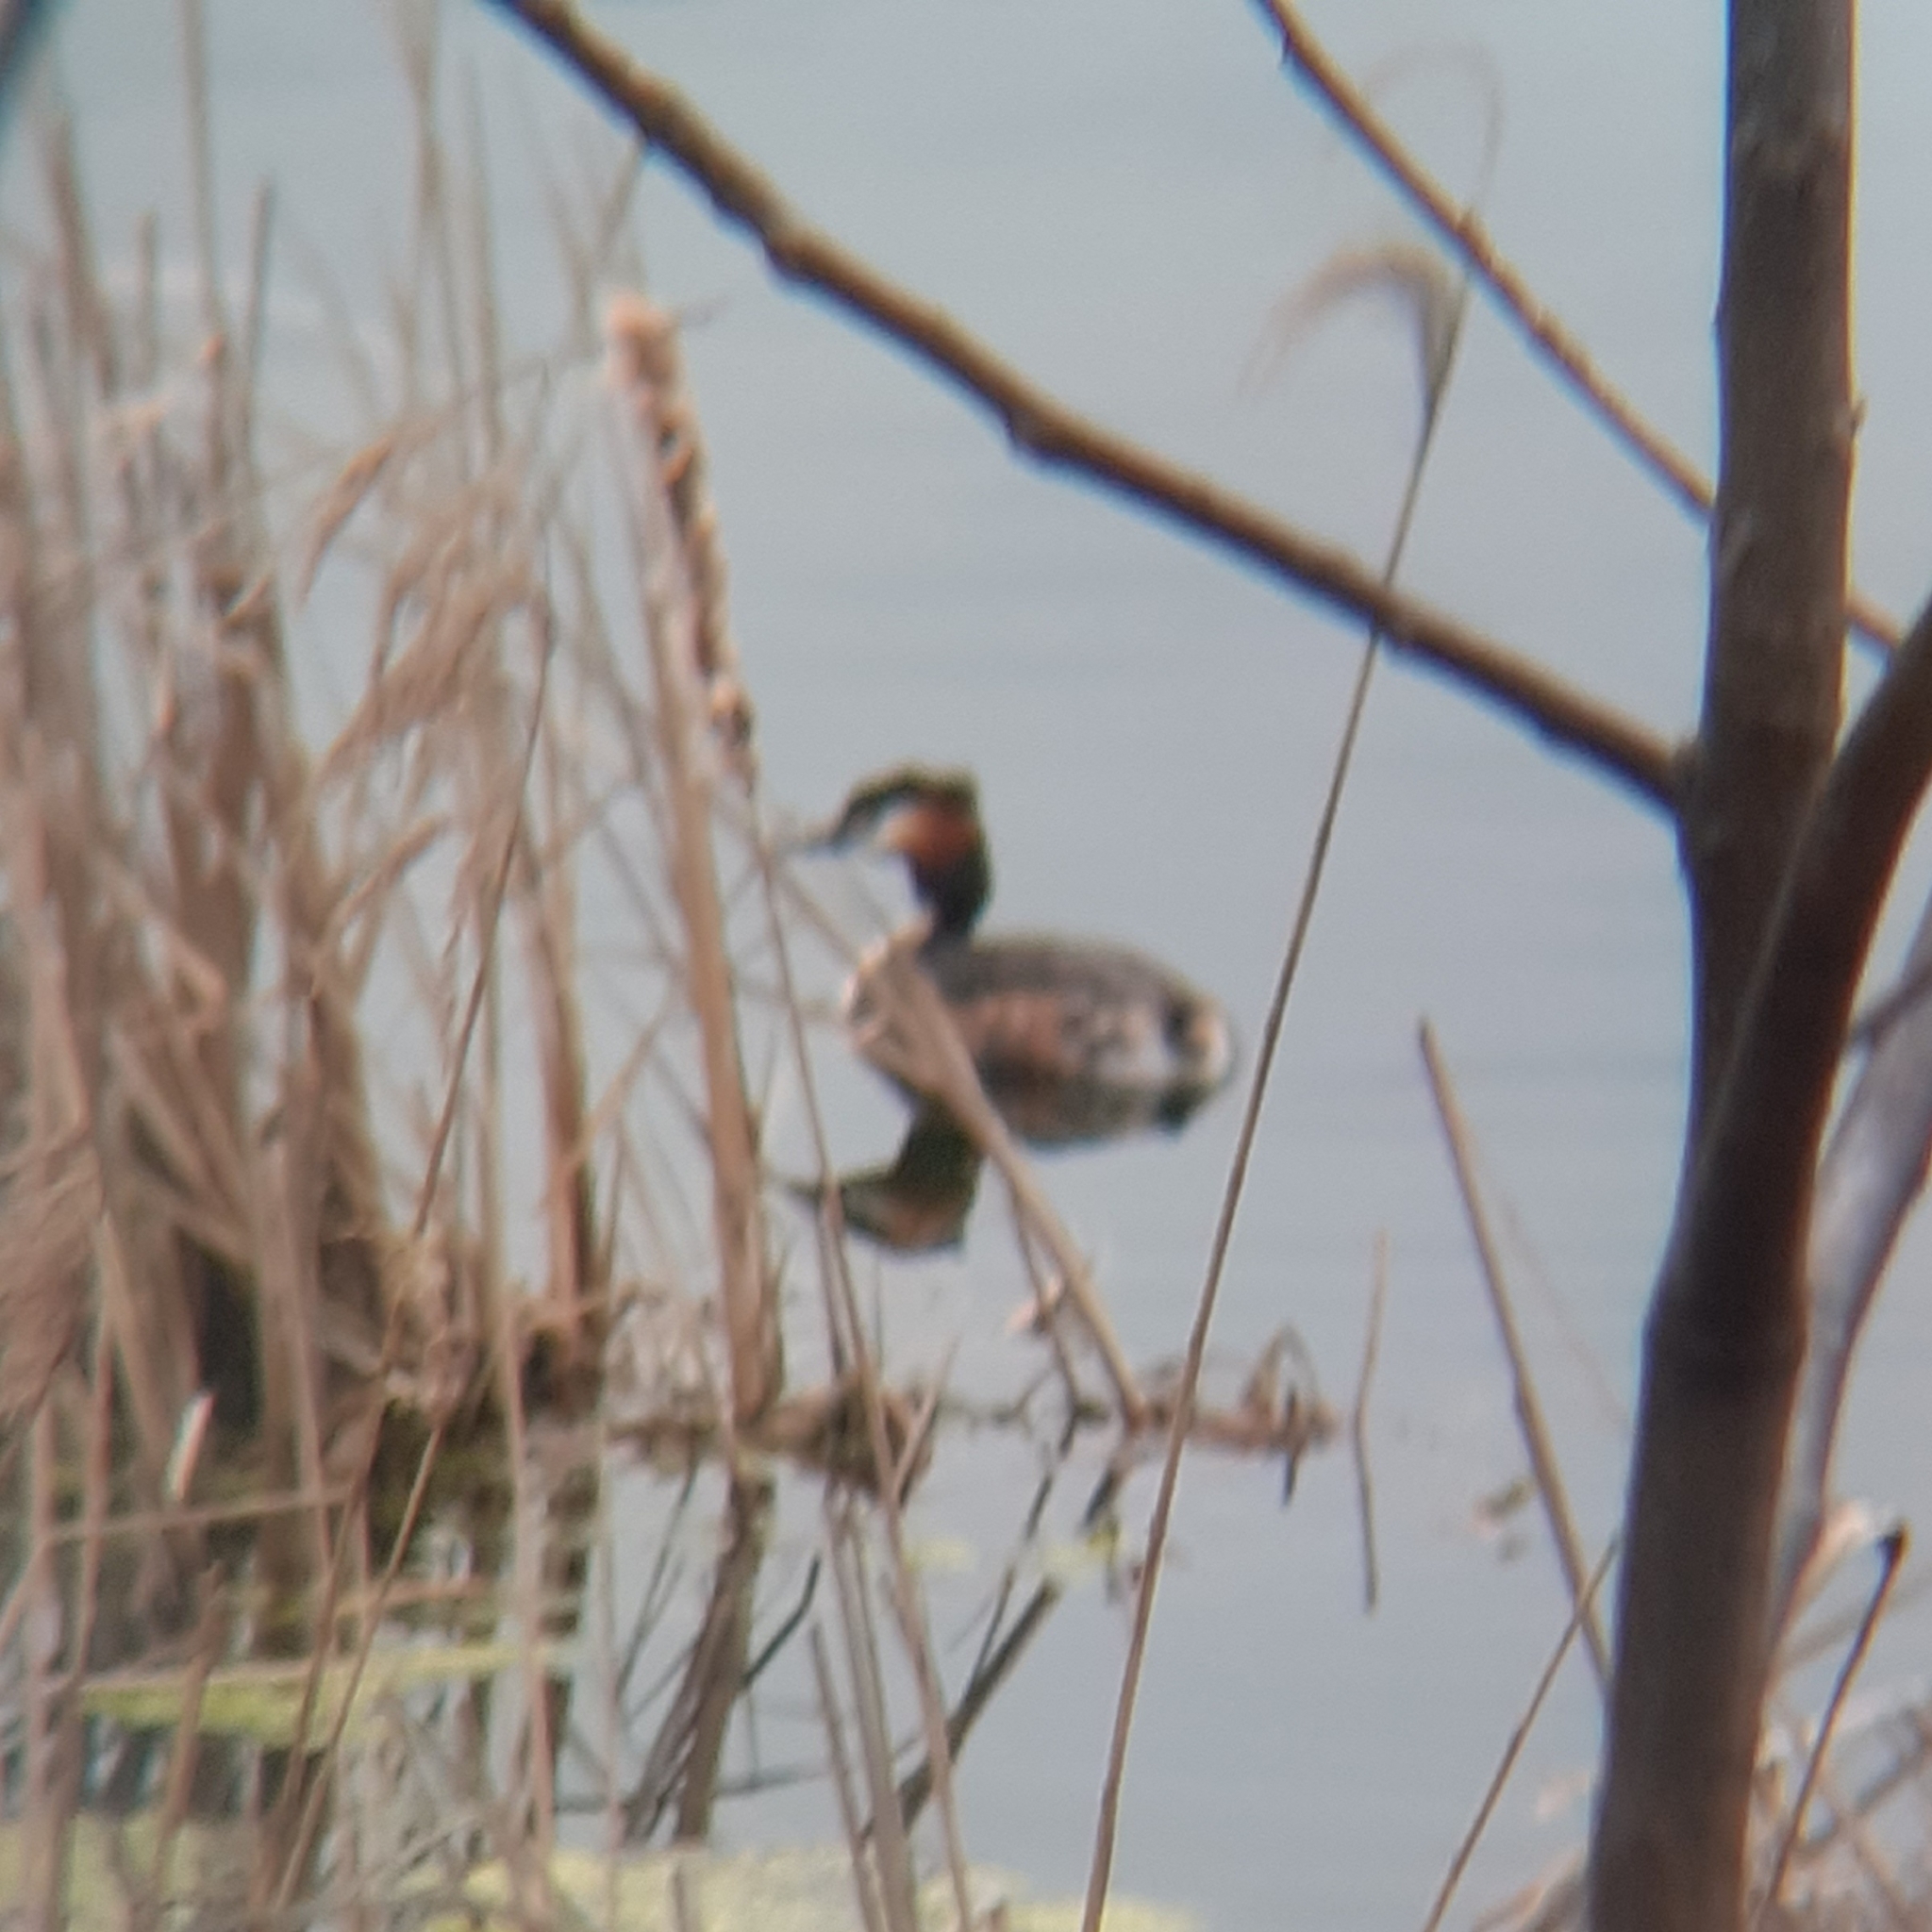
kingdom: Animalia
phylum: Chordata
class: Aves
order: Podicipediformes
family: Podicipedidae
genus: Podiceps
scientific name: Podiceps cristatus
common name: Great crested grebe
